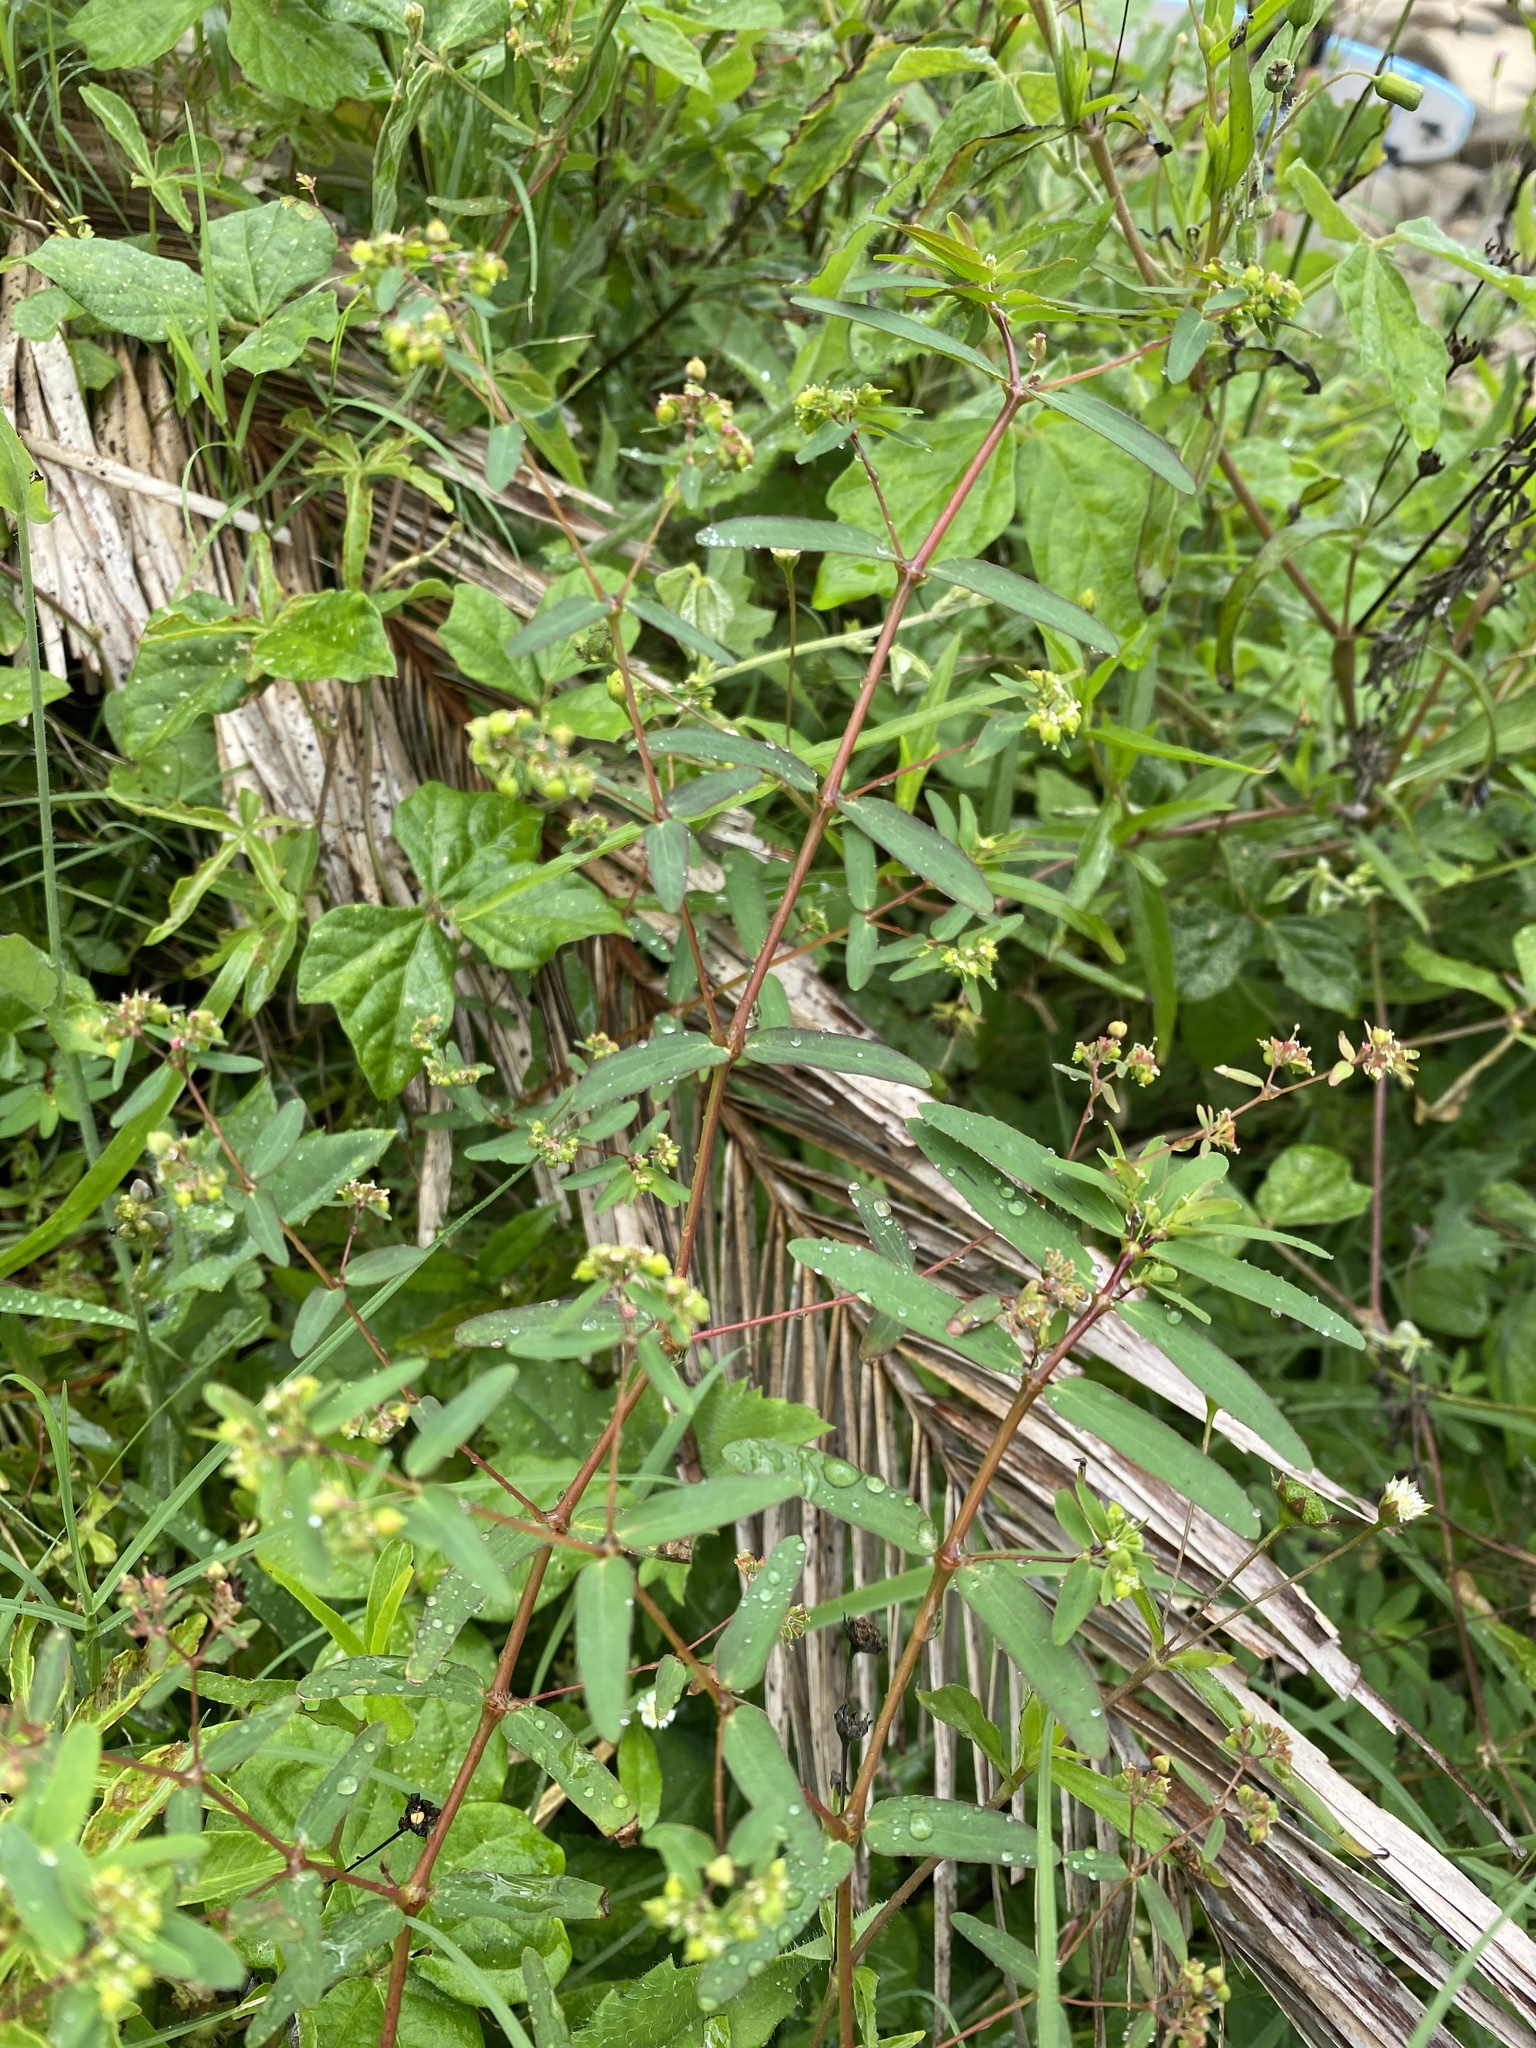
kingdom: Plantae
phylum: Tracheophyta
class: Magnoliopsida
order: Malpighiales
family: Euphorbiaceae
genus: Euphorbia
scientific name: Euphorbia hyssopifolia
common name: Hyssopleaf sandmat
